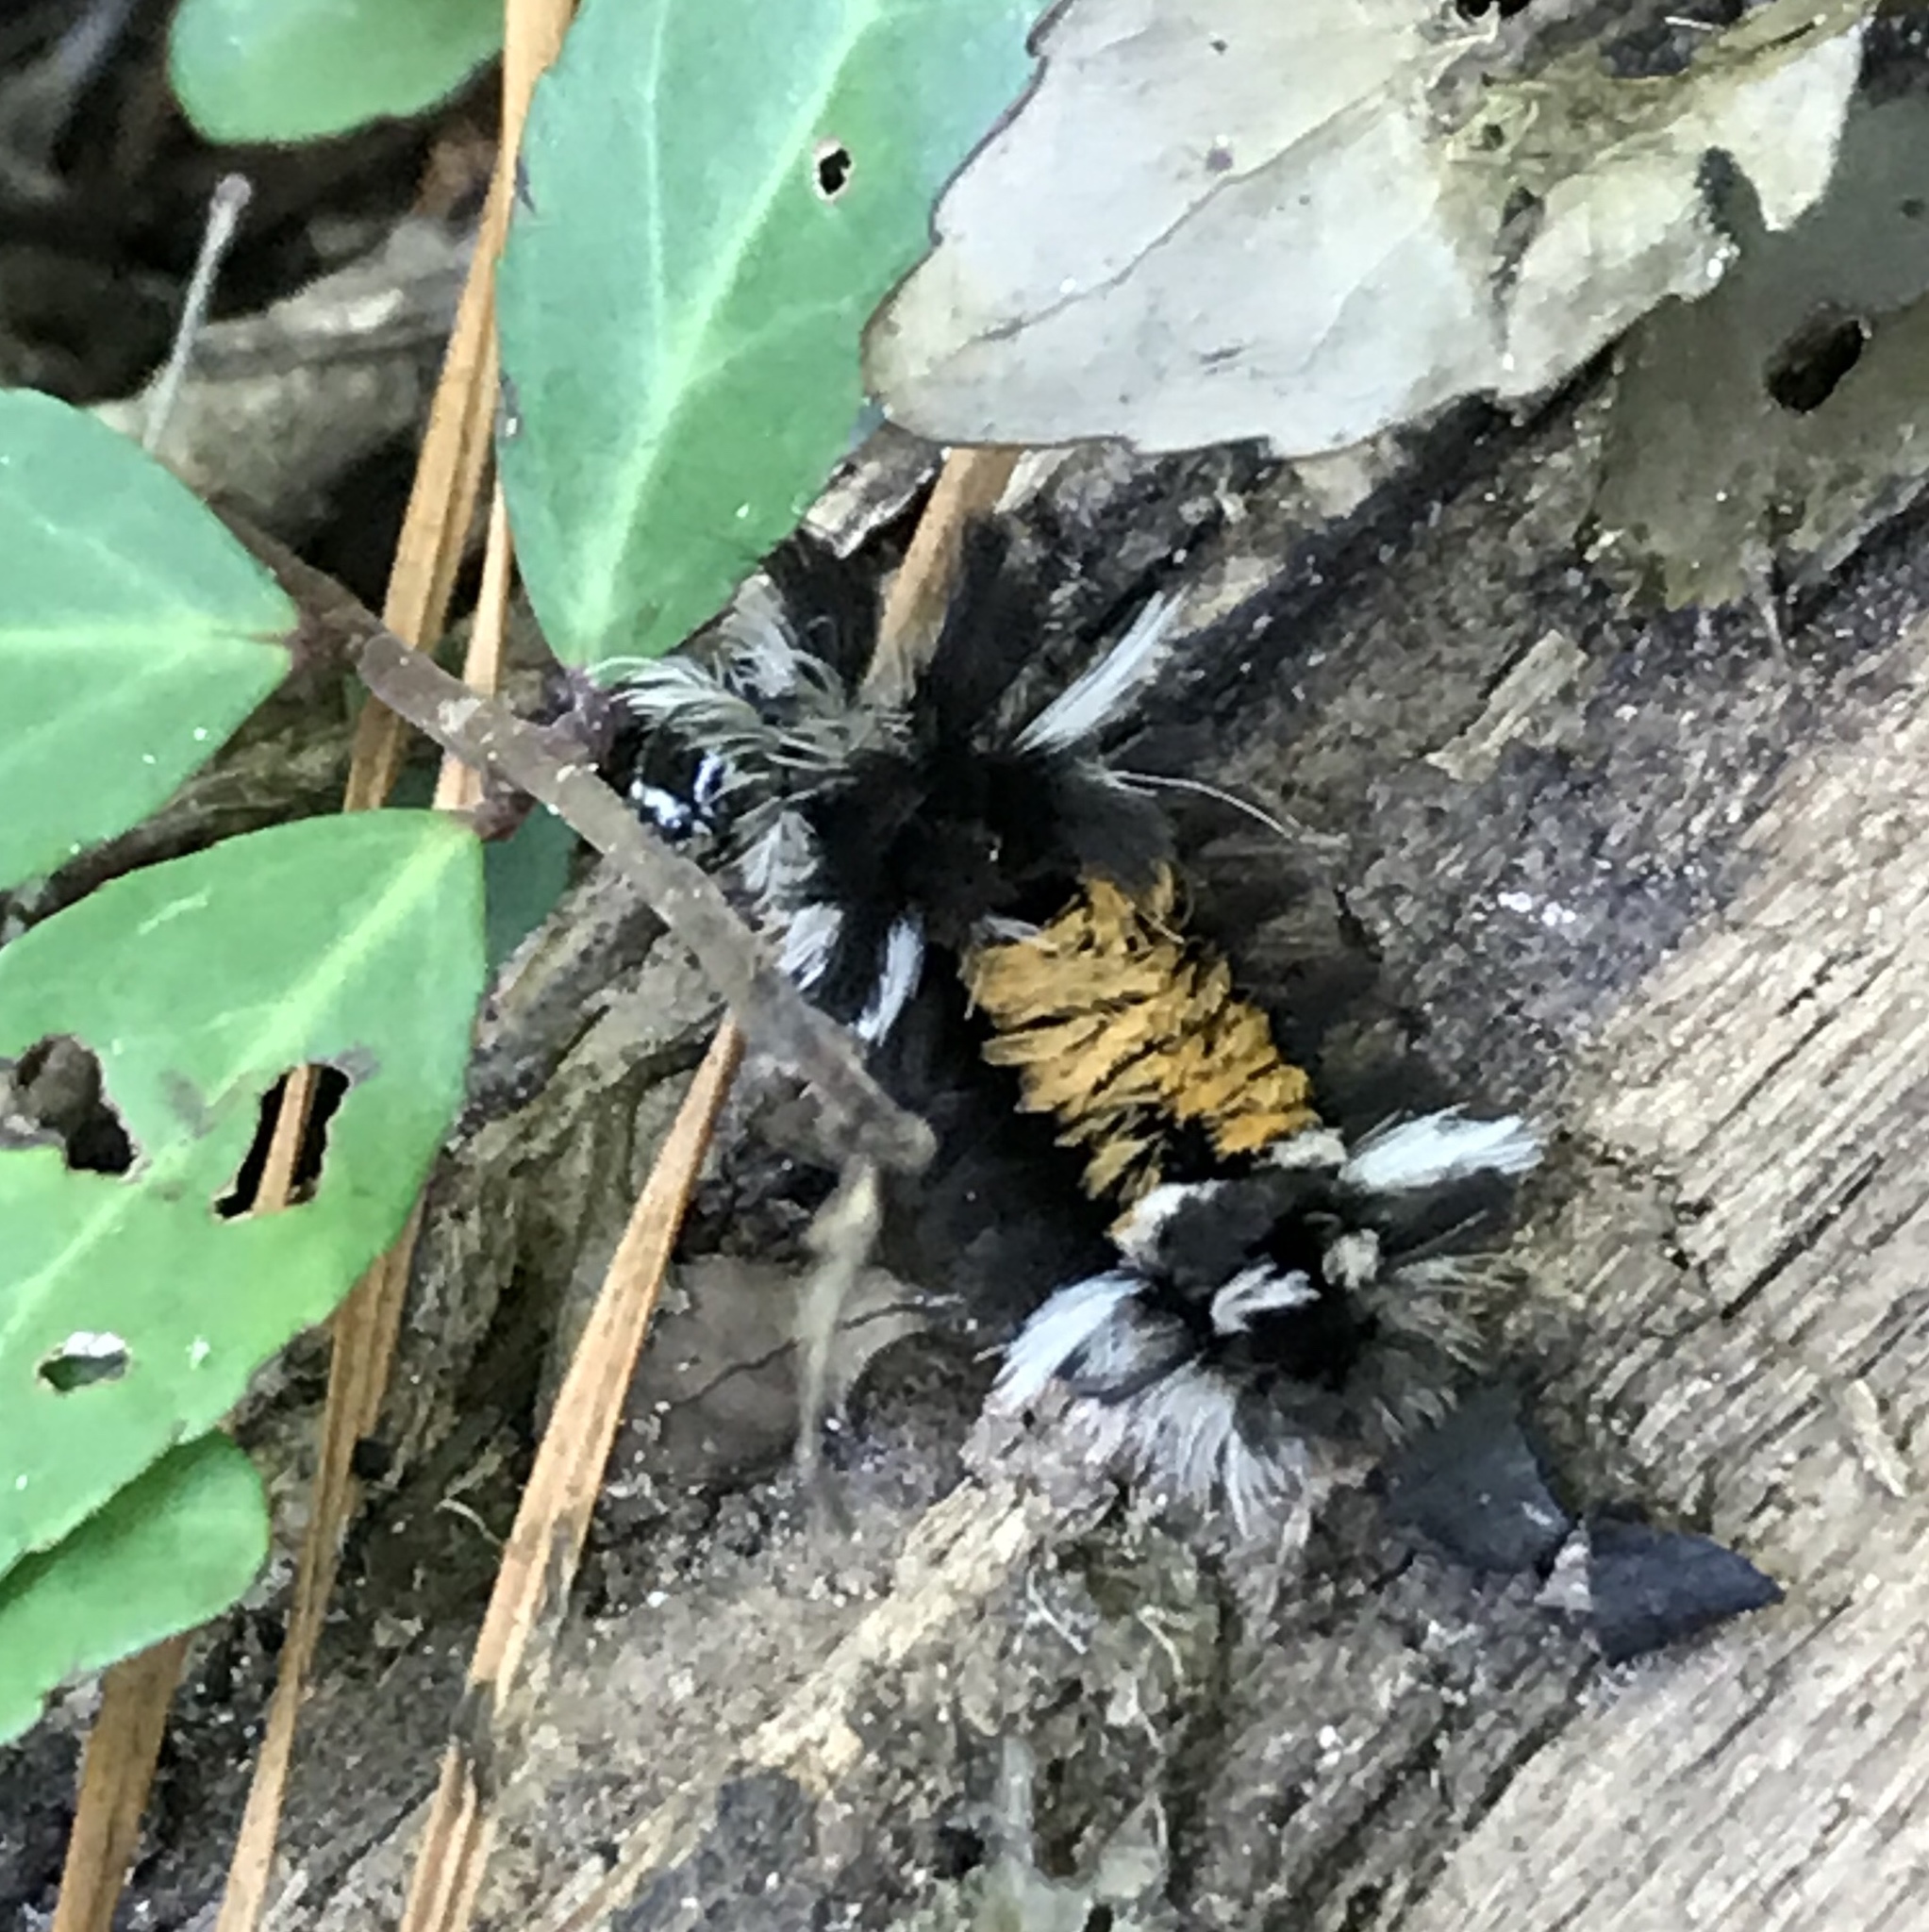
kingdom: Animalia
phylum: Arthropoda
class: Insecta
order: Lepidoptera
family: Erebidae
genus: Euchaetes
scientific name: Euchaetes egle
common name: Milkweed tussock moth
